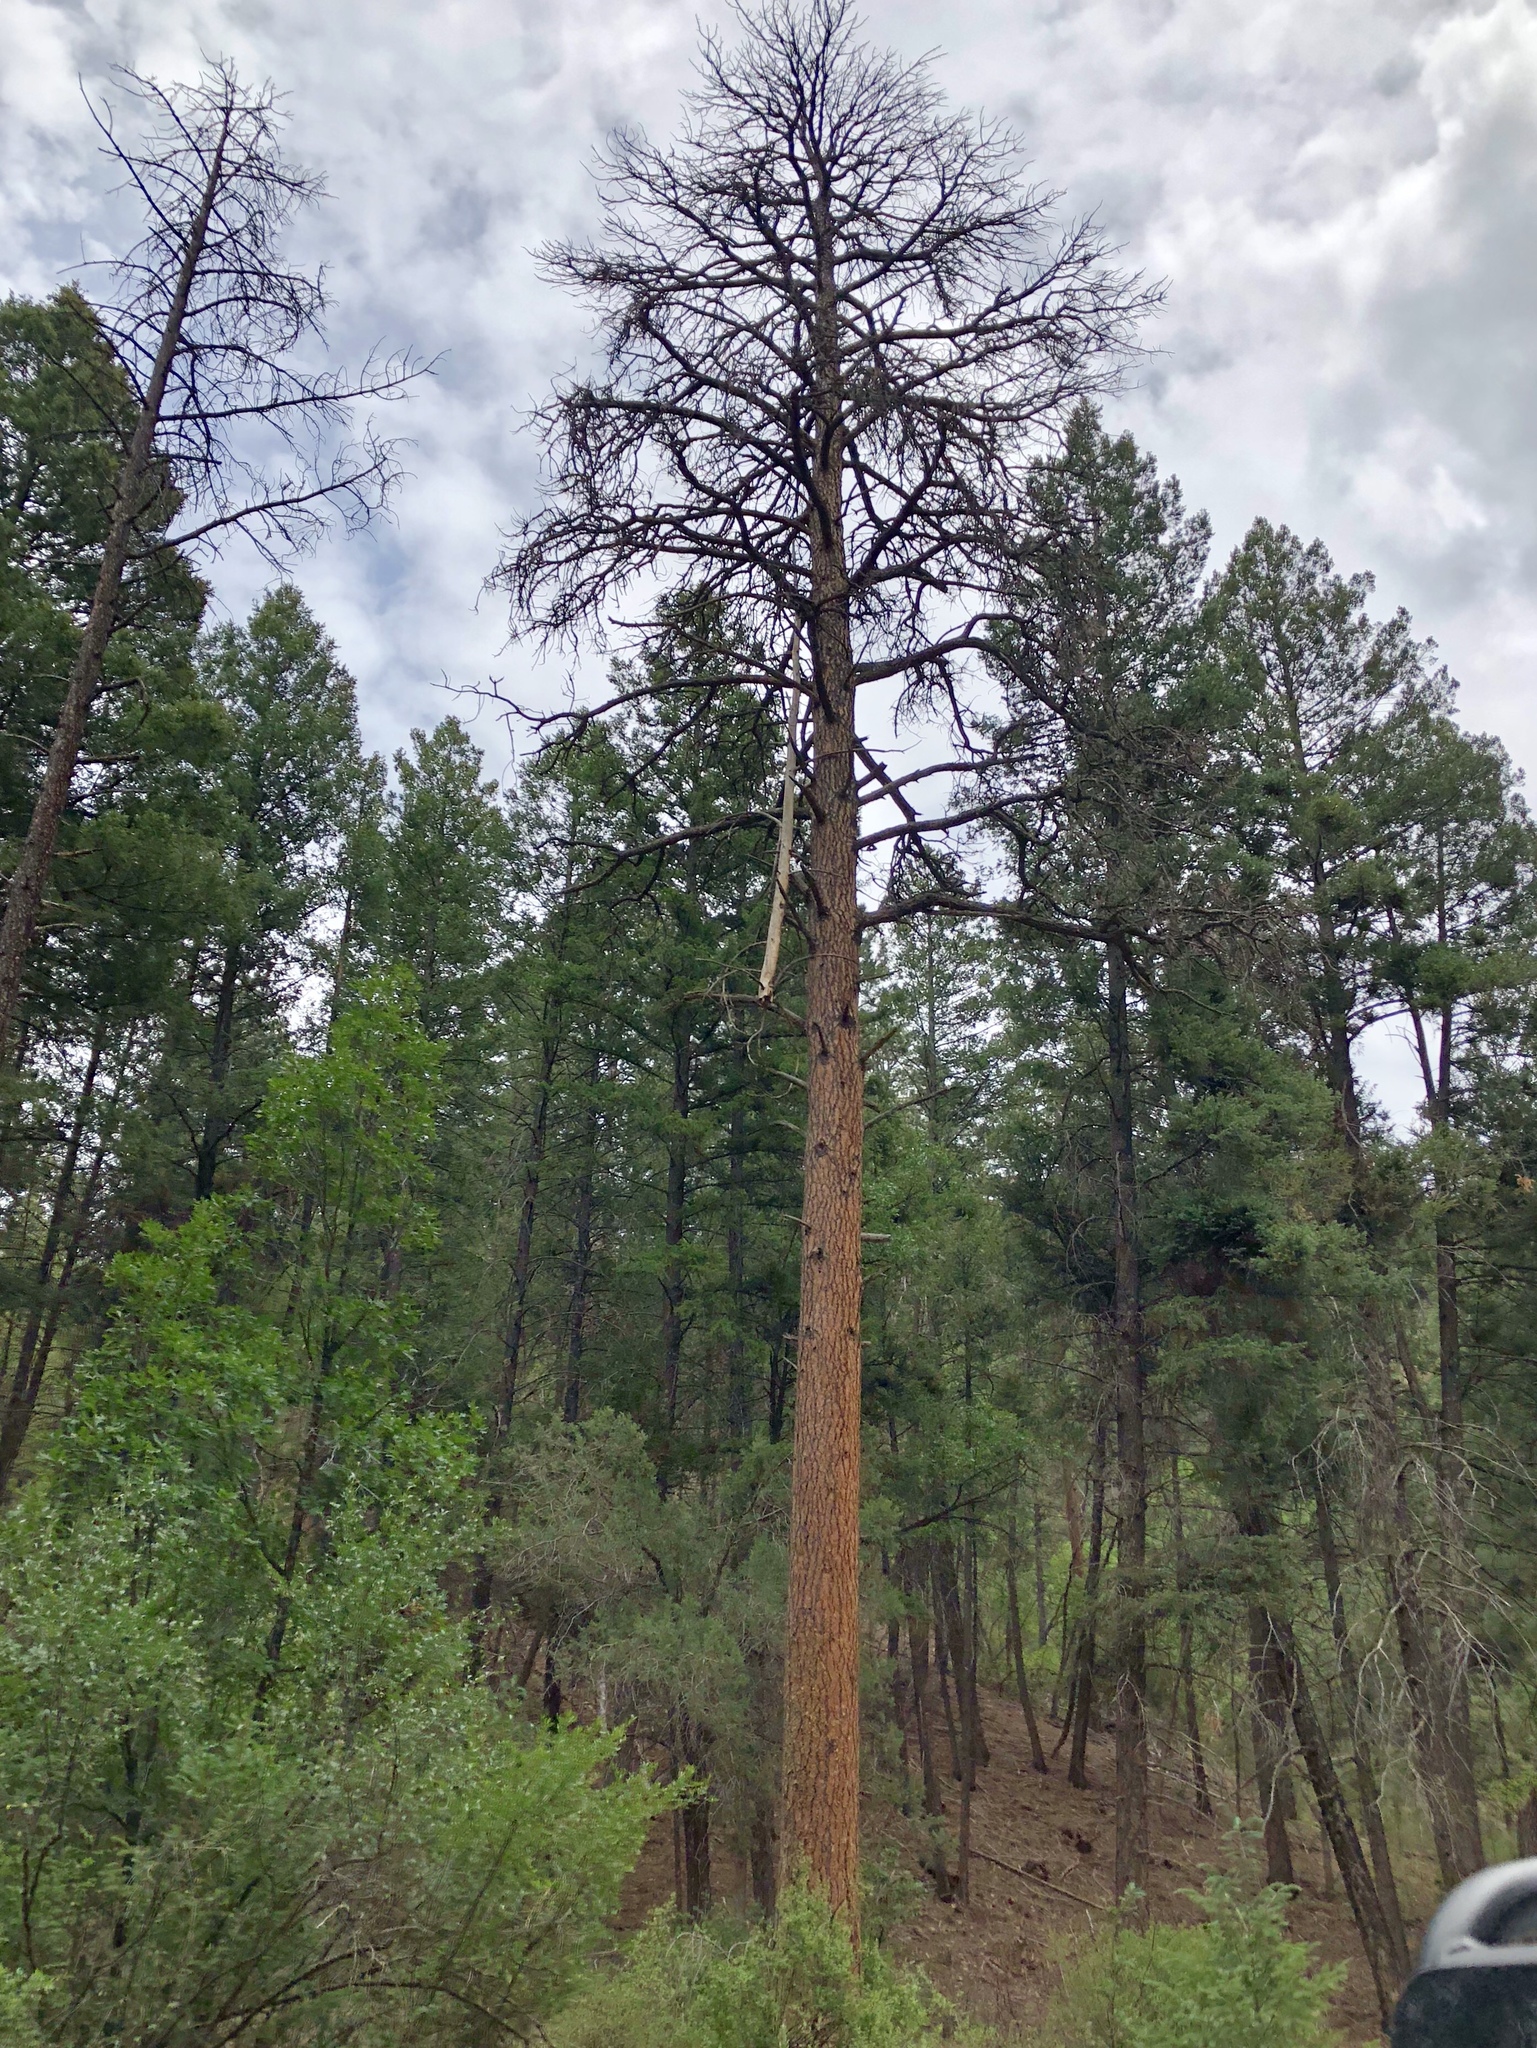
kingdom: Plantae
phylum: Tracheophyta
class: Pinopsida
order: Pinales
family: Pinaceae
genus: Pinus
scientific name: Pinus ponderosa
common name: Western yellow-pine
